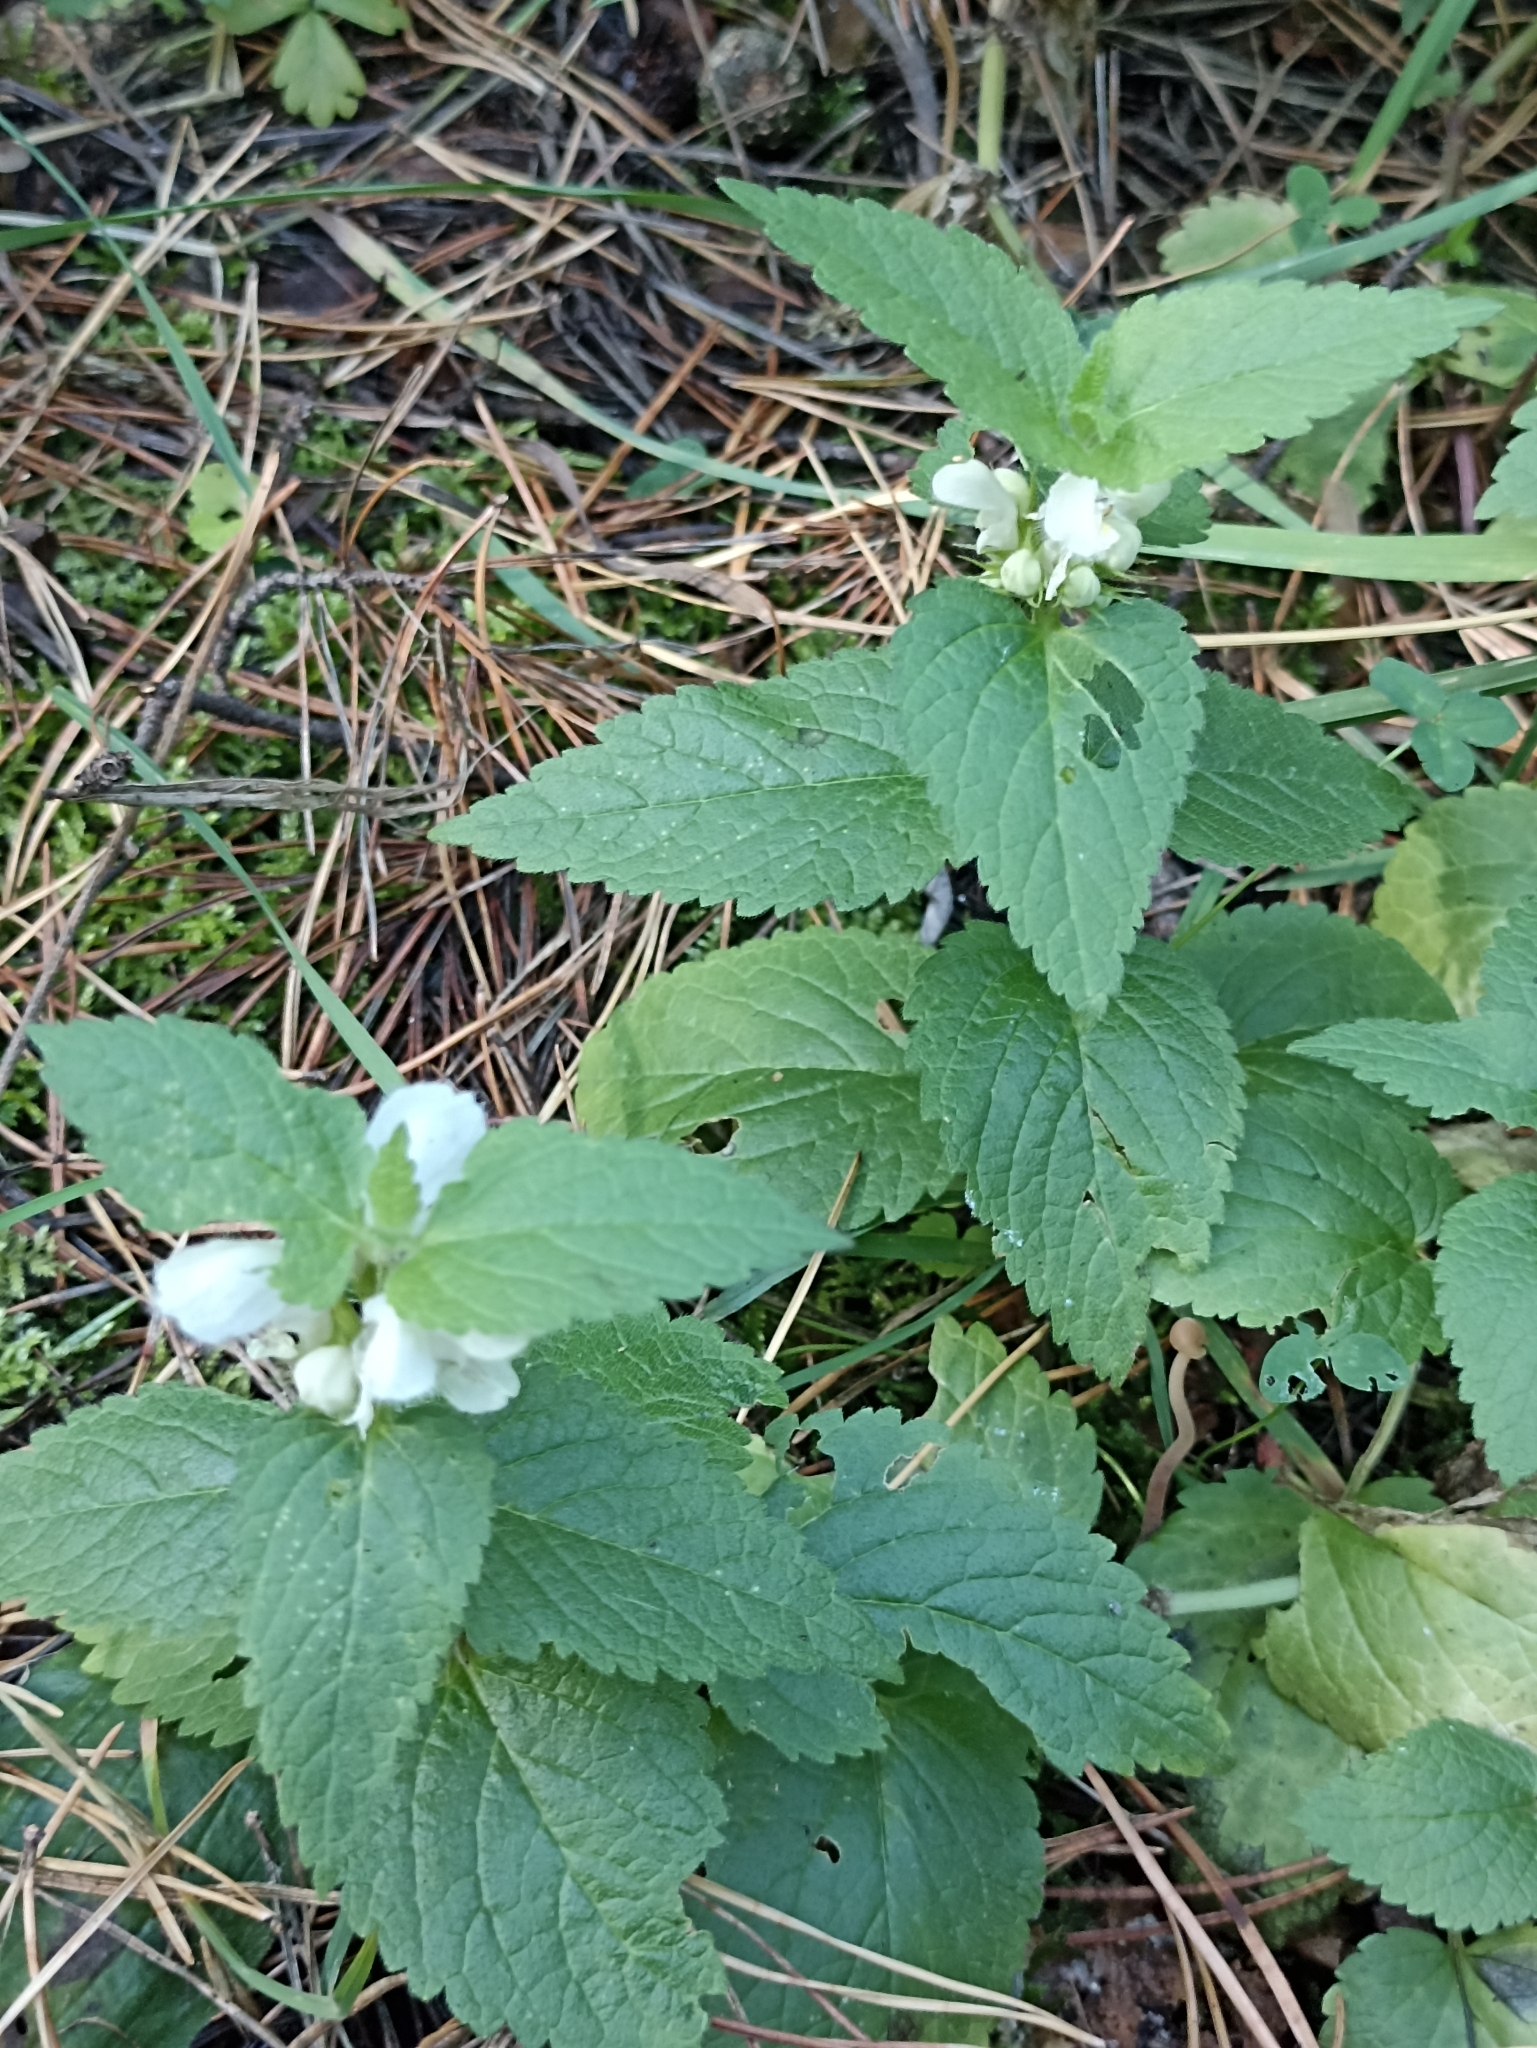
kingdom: Plantae
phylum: Tracheophyta
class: Magnoliopsida
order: Lamiales
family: Lamiaceae
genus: Lamium
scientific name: Lamium album
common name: White dead-nettle
